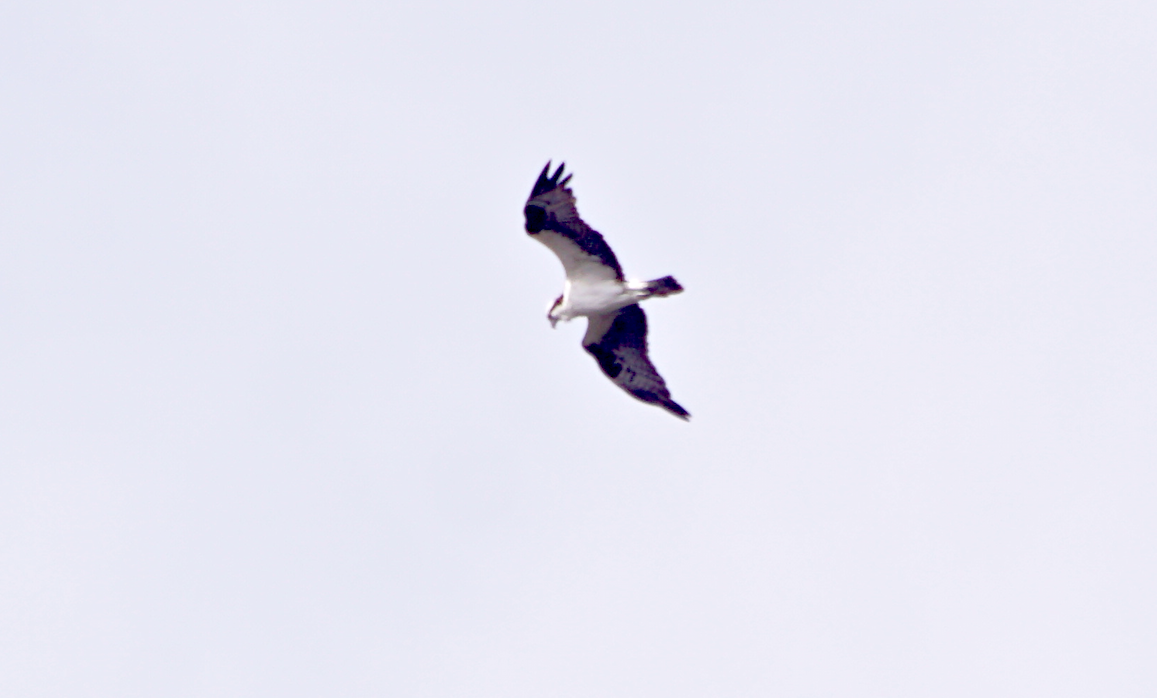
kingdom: Animalia
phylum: Chordata
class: Aves
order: Accipitriformes
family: Pandionidae
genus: Pandion
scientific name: Pandion haliaetus
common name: Osprey
